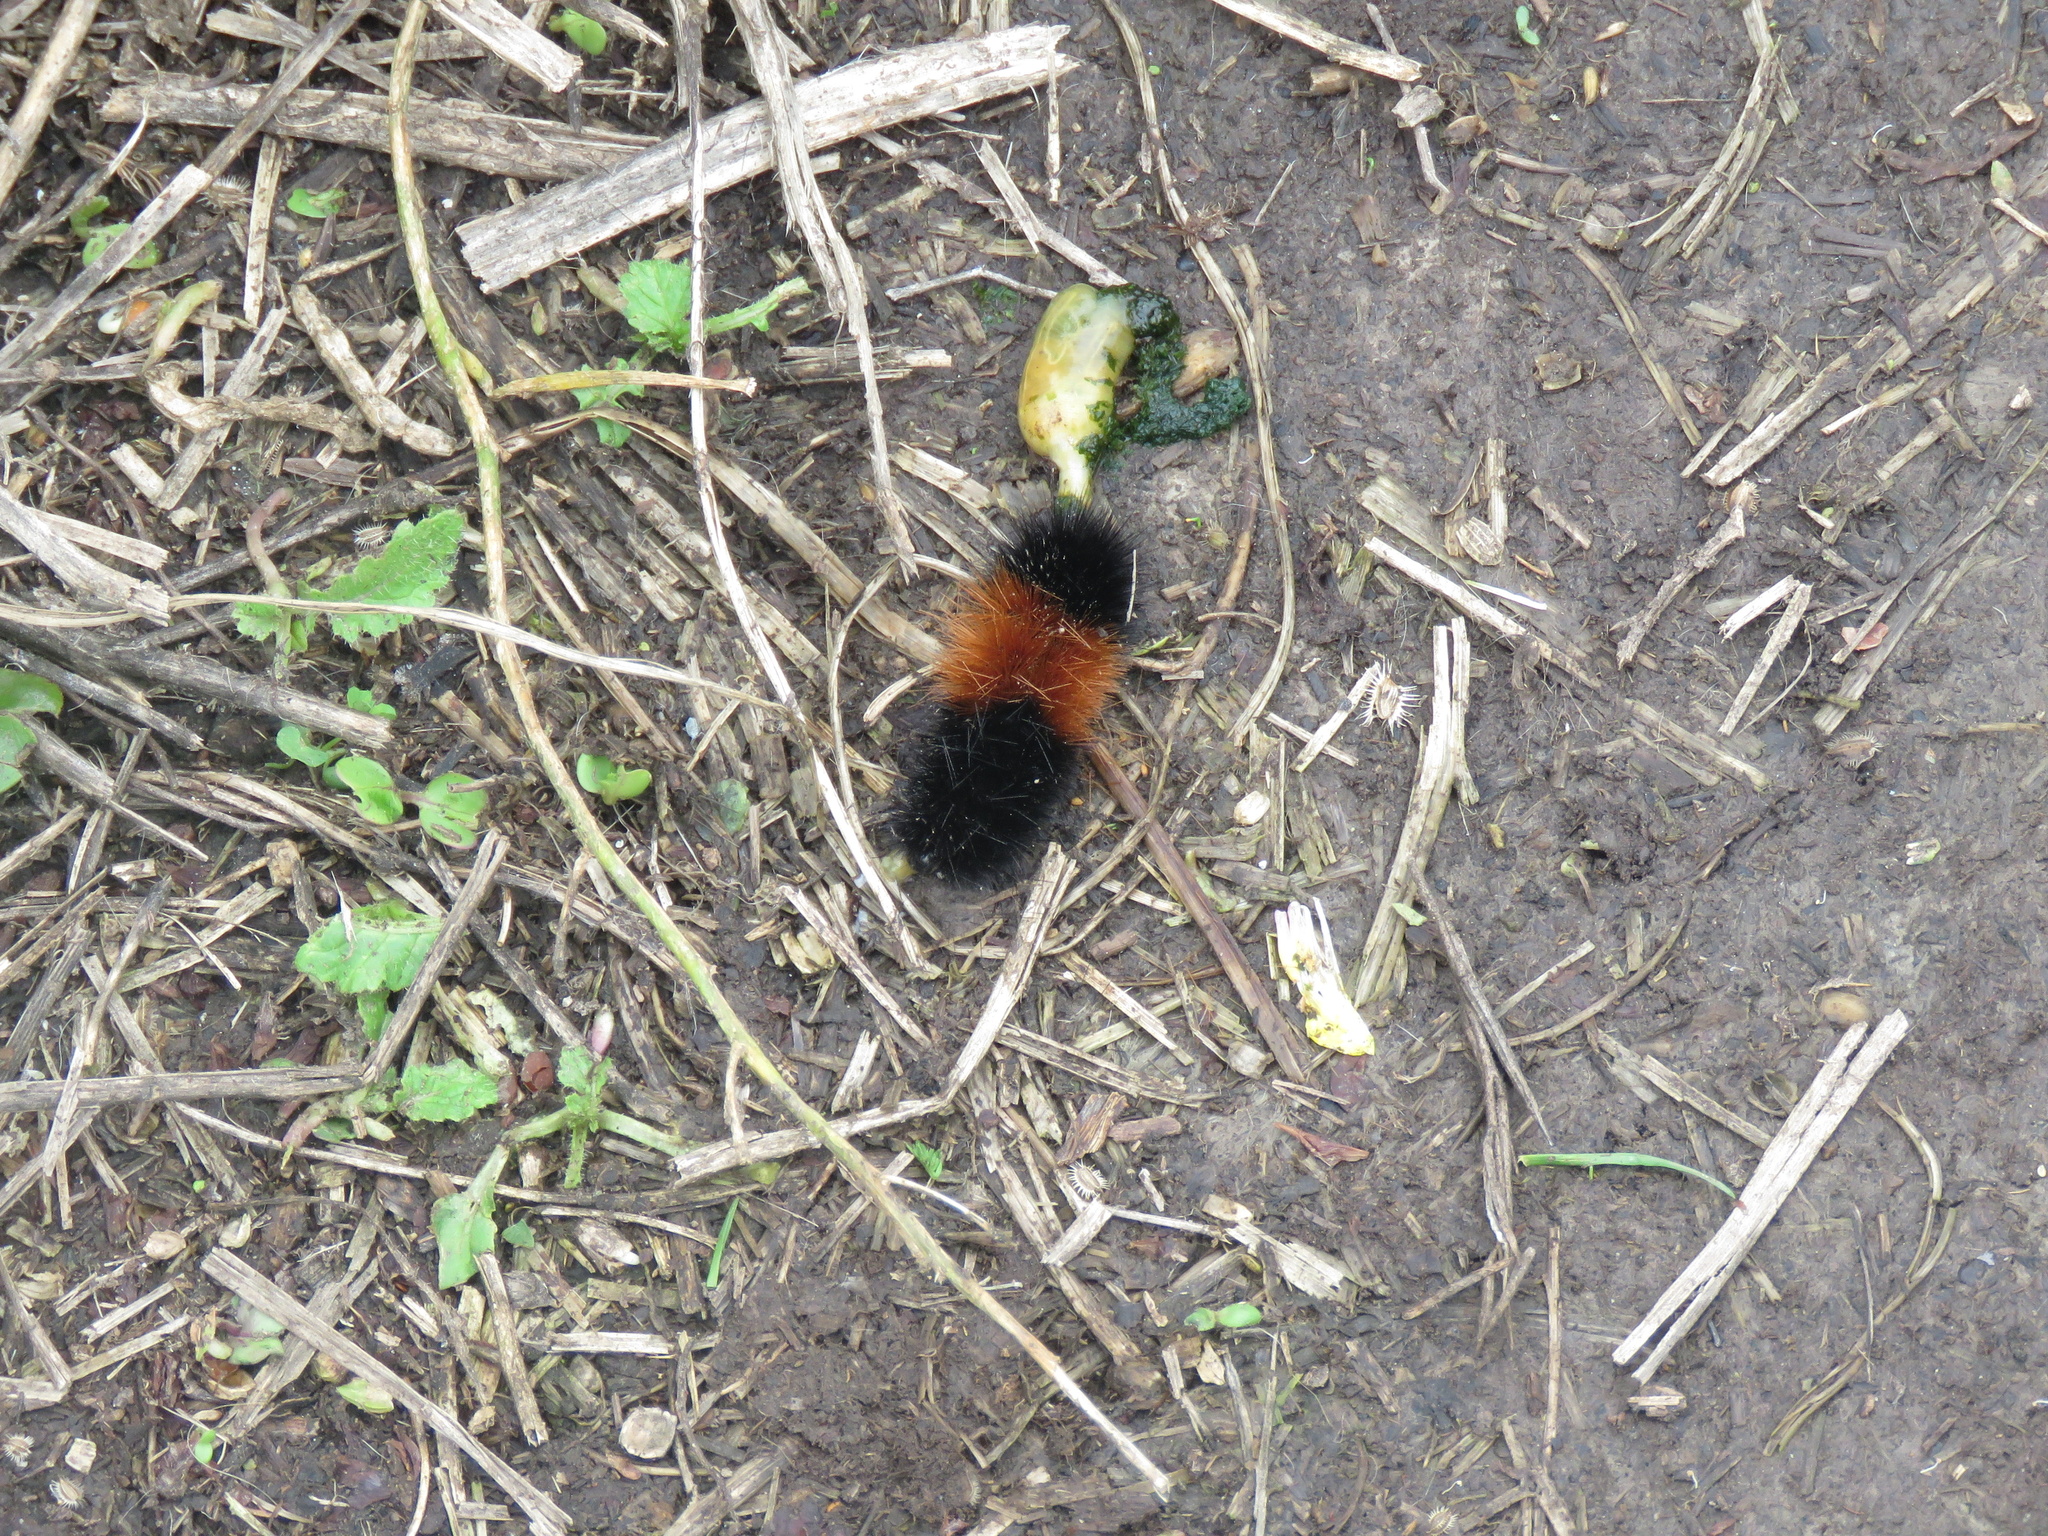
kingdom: Animalia
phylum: Arthropoda
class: Insecta
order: Lepidoptera
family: Erebidae
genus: Pyrrharctia
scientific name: Pyrrharctia isabella
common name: Isabella tiger moth
